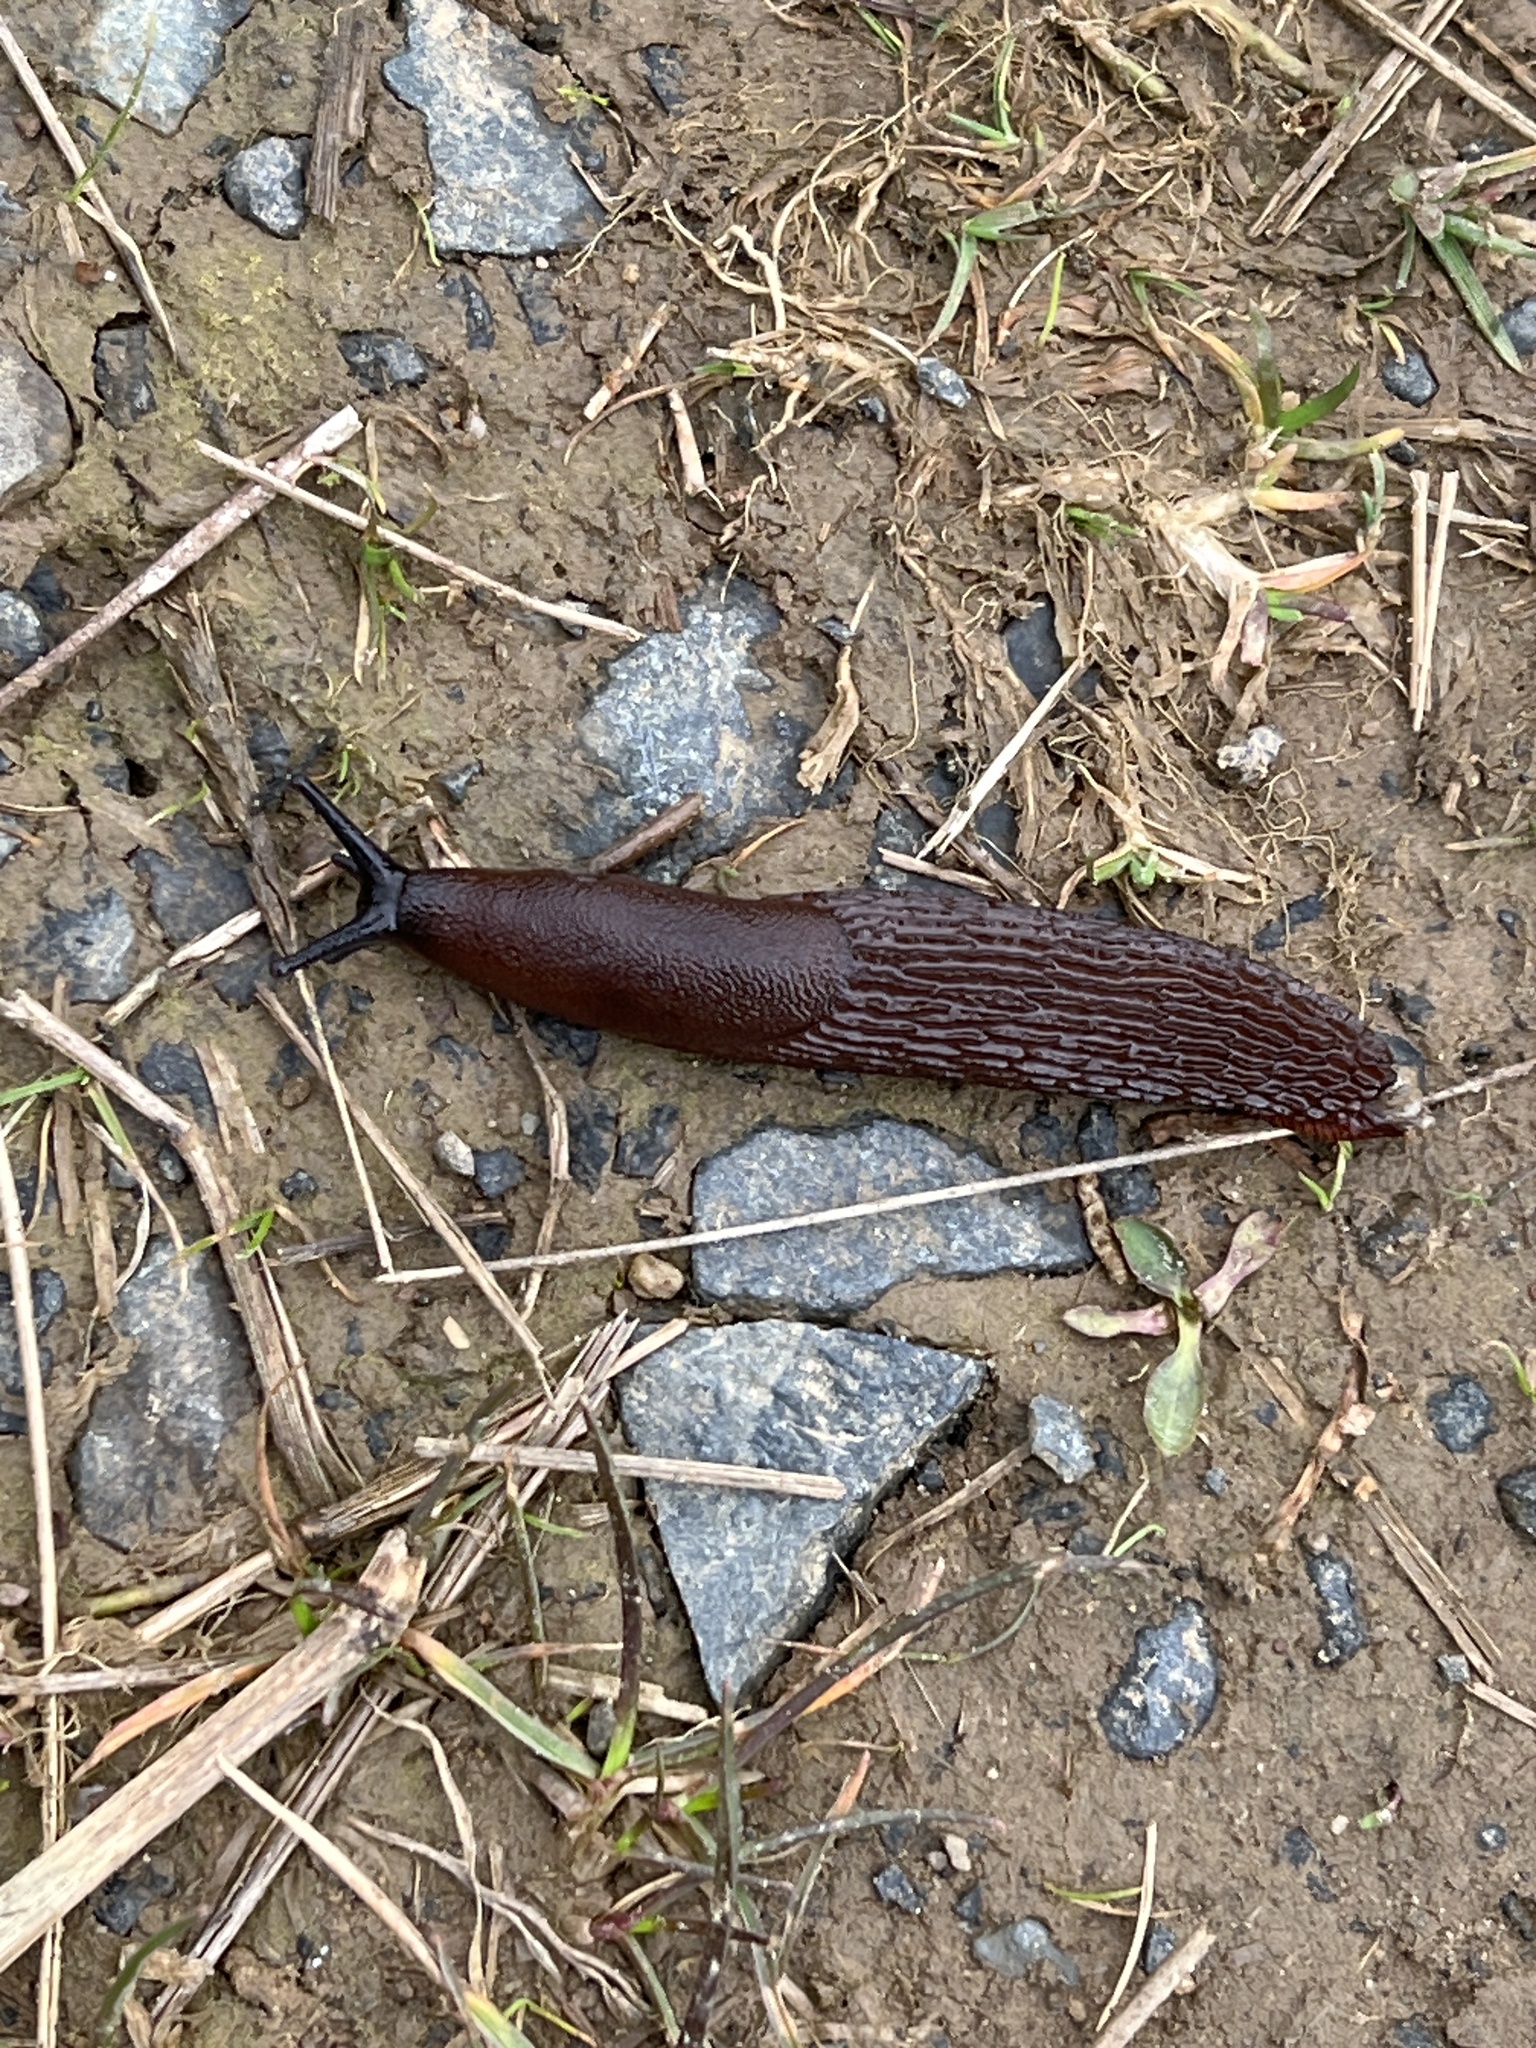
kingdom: Animalia
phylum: Mollusca
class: Gastropoda
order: Stylommatophora
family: Arionidae
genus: Arion
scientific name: Arion
